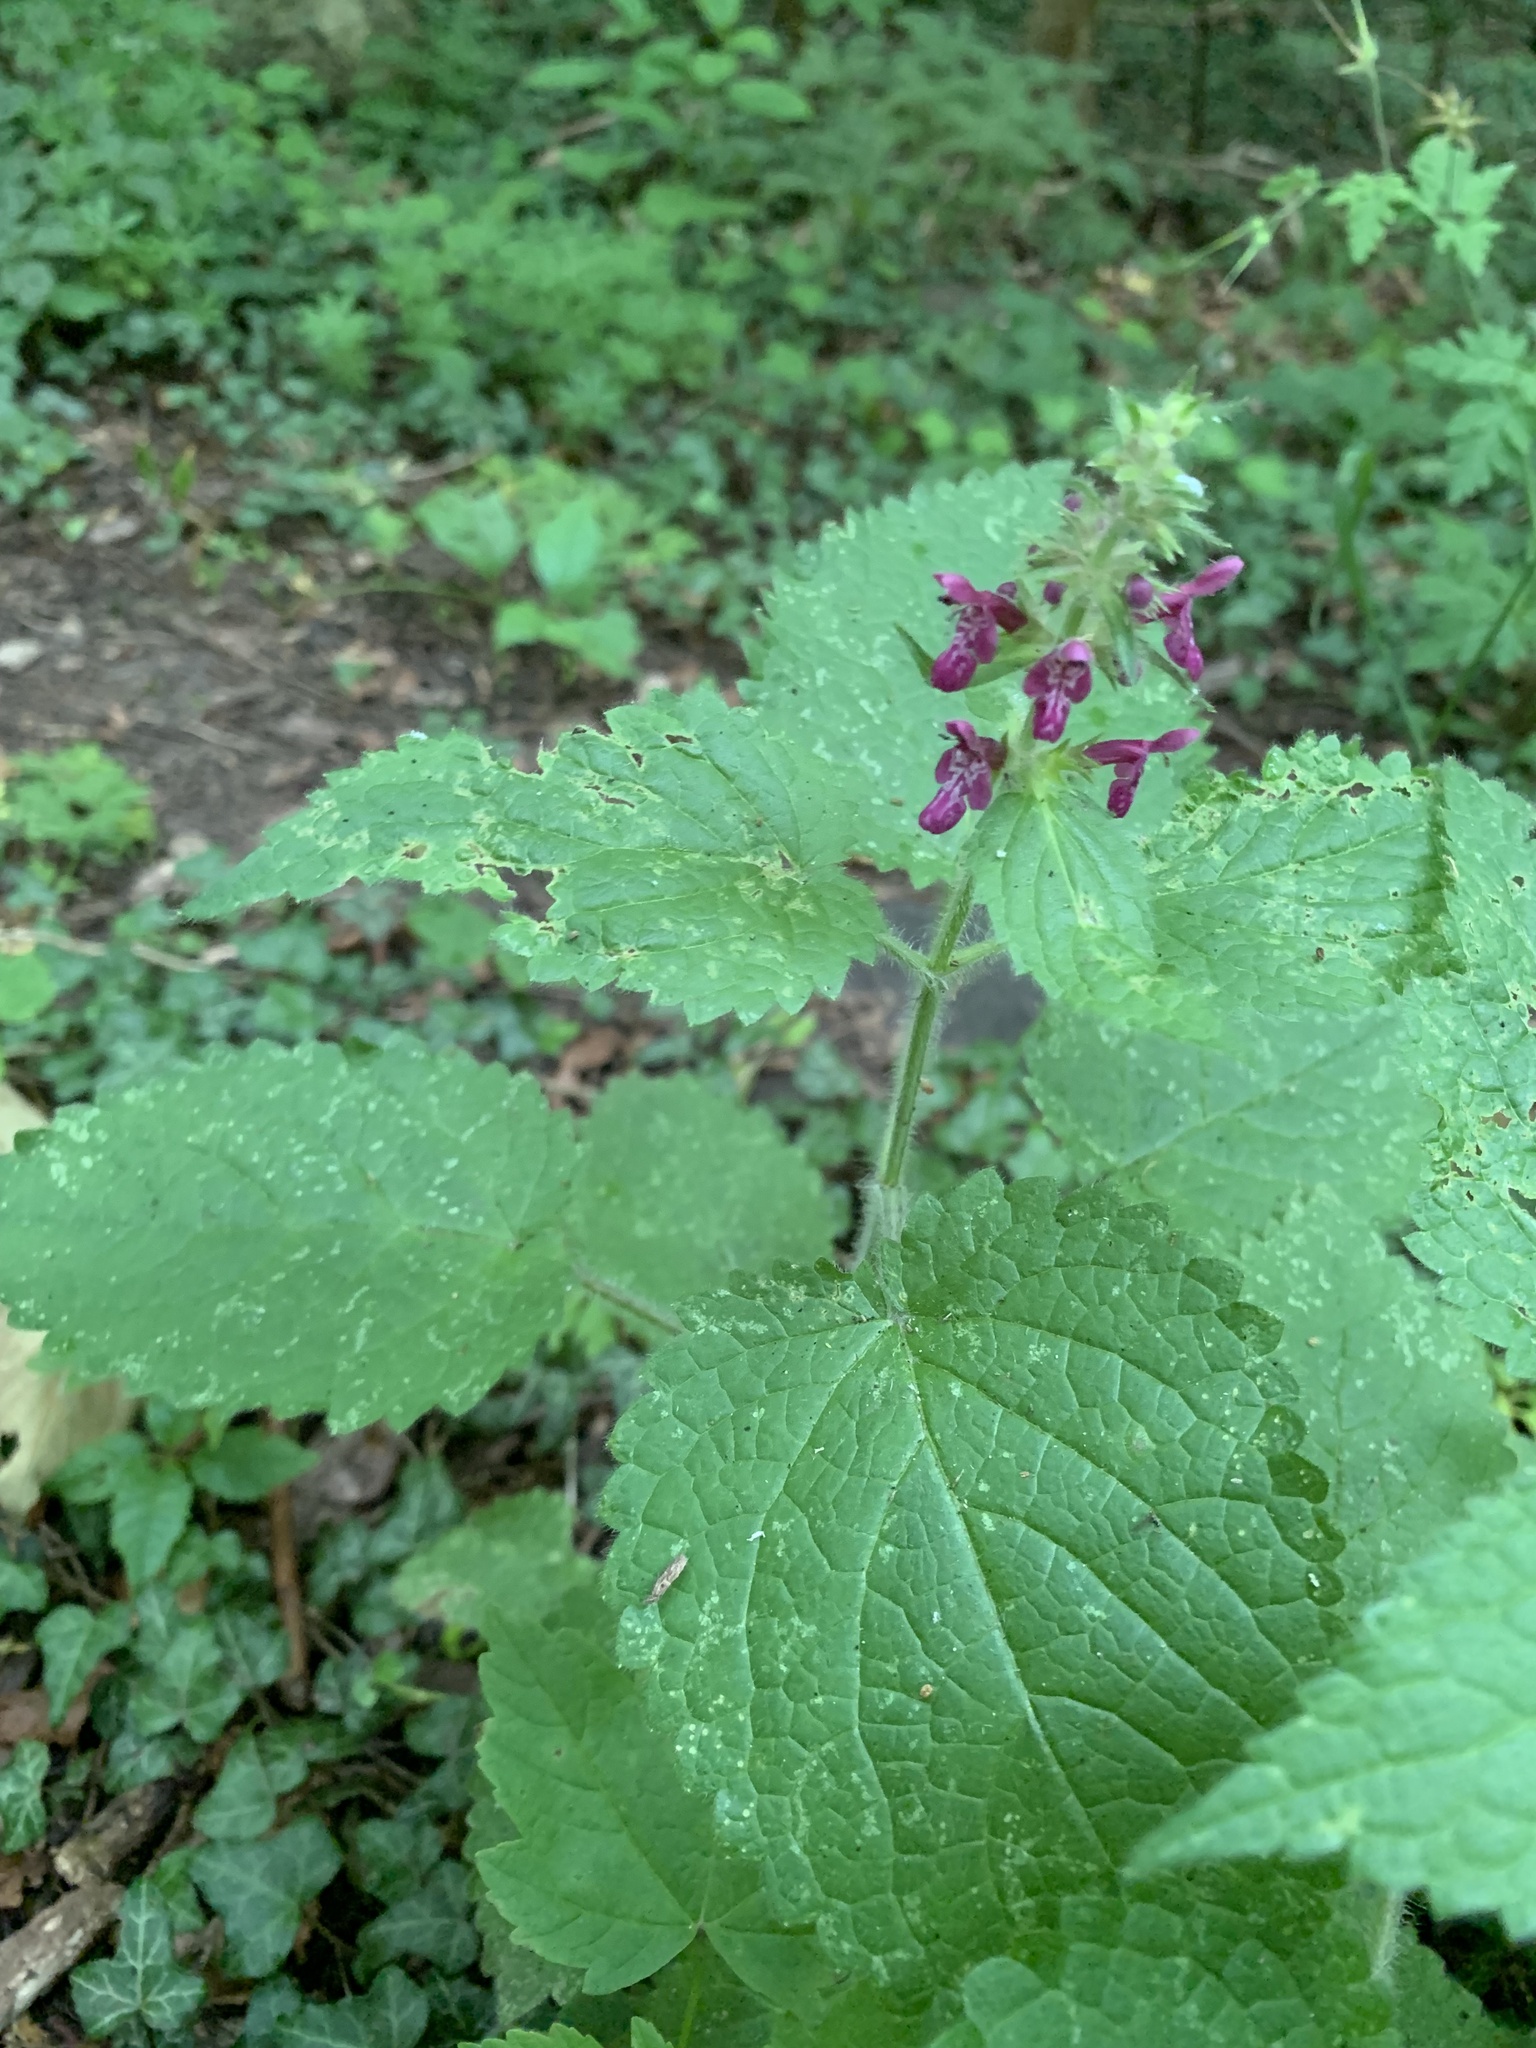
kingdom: Plantae
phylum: Tracheophyta
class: Magnoliopsida
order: Lamiales
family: Lamiaceae
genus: Stachys
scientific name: Stachys sylvatica
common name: Hedge woundwort
